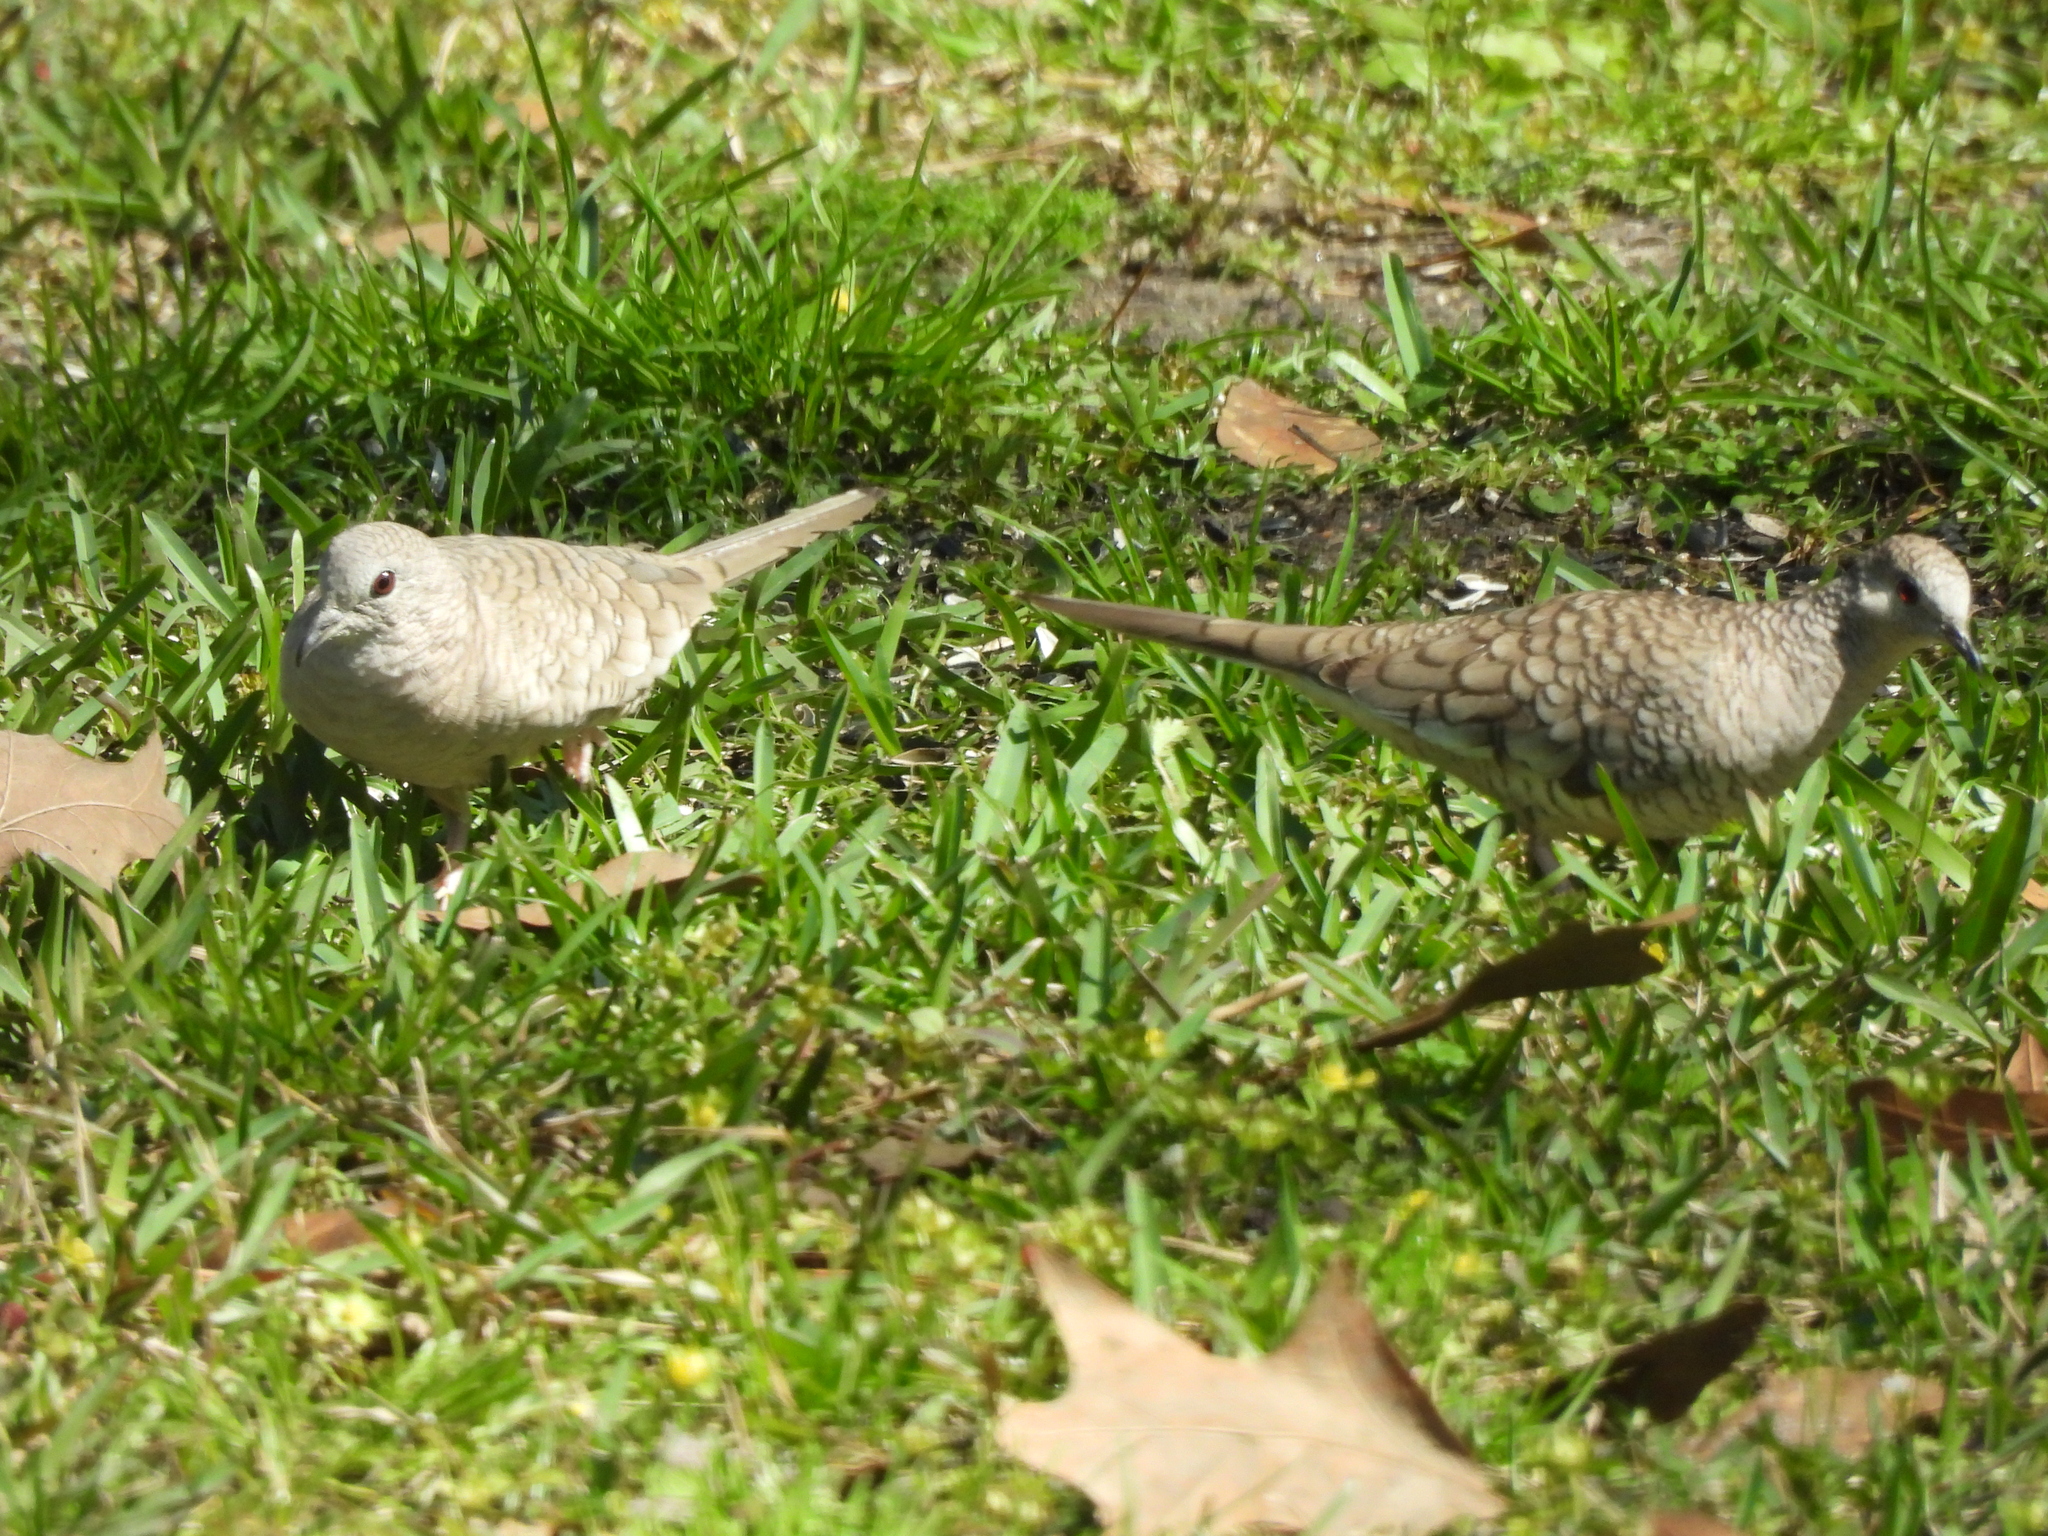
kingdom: Animalia
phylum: Chordata
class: Aves
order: Columbiformes
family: Columbidae
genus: Columbina
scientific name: Columbina inca
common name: Inca dove
